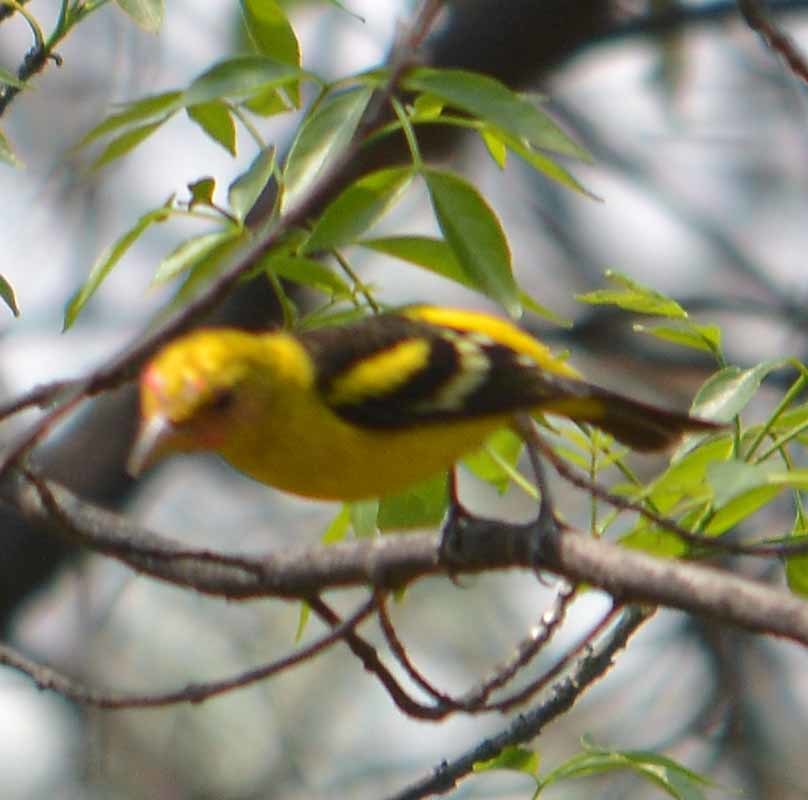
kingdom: Animalia
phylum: Chordata
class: Aves
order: Passeriformes
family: Cardinalidae
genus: Piranga
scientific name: Piranga ludoviciana
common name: Western tanager
